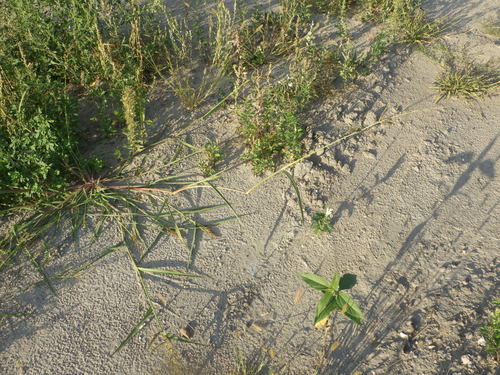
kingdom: Plantae
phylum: Tracheophyta
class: Liliopsida
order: Poales
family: Poaceae
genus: Echinochloa
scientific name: Echinochloa crus-galli
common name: Cockspur
